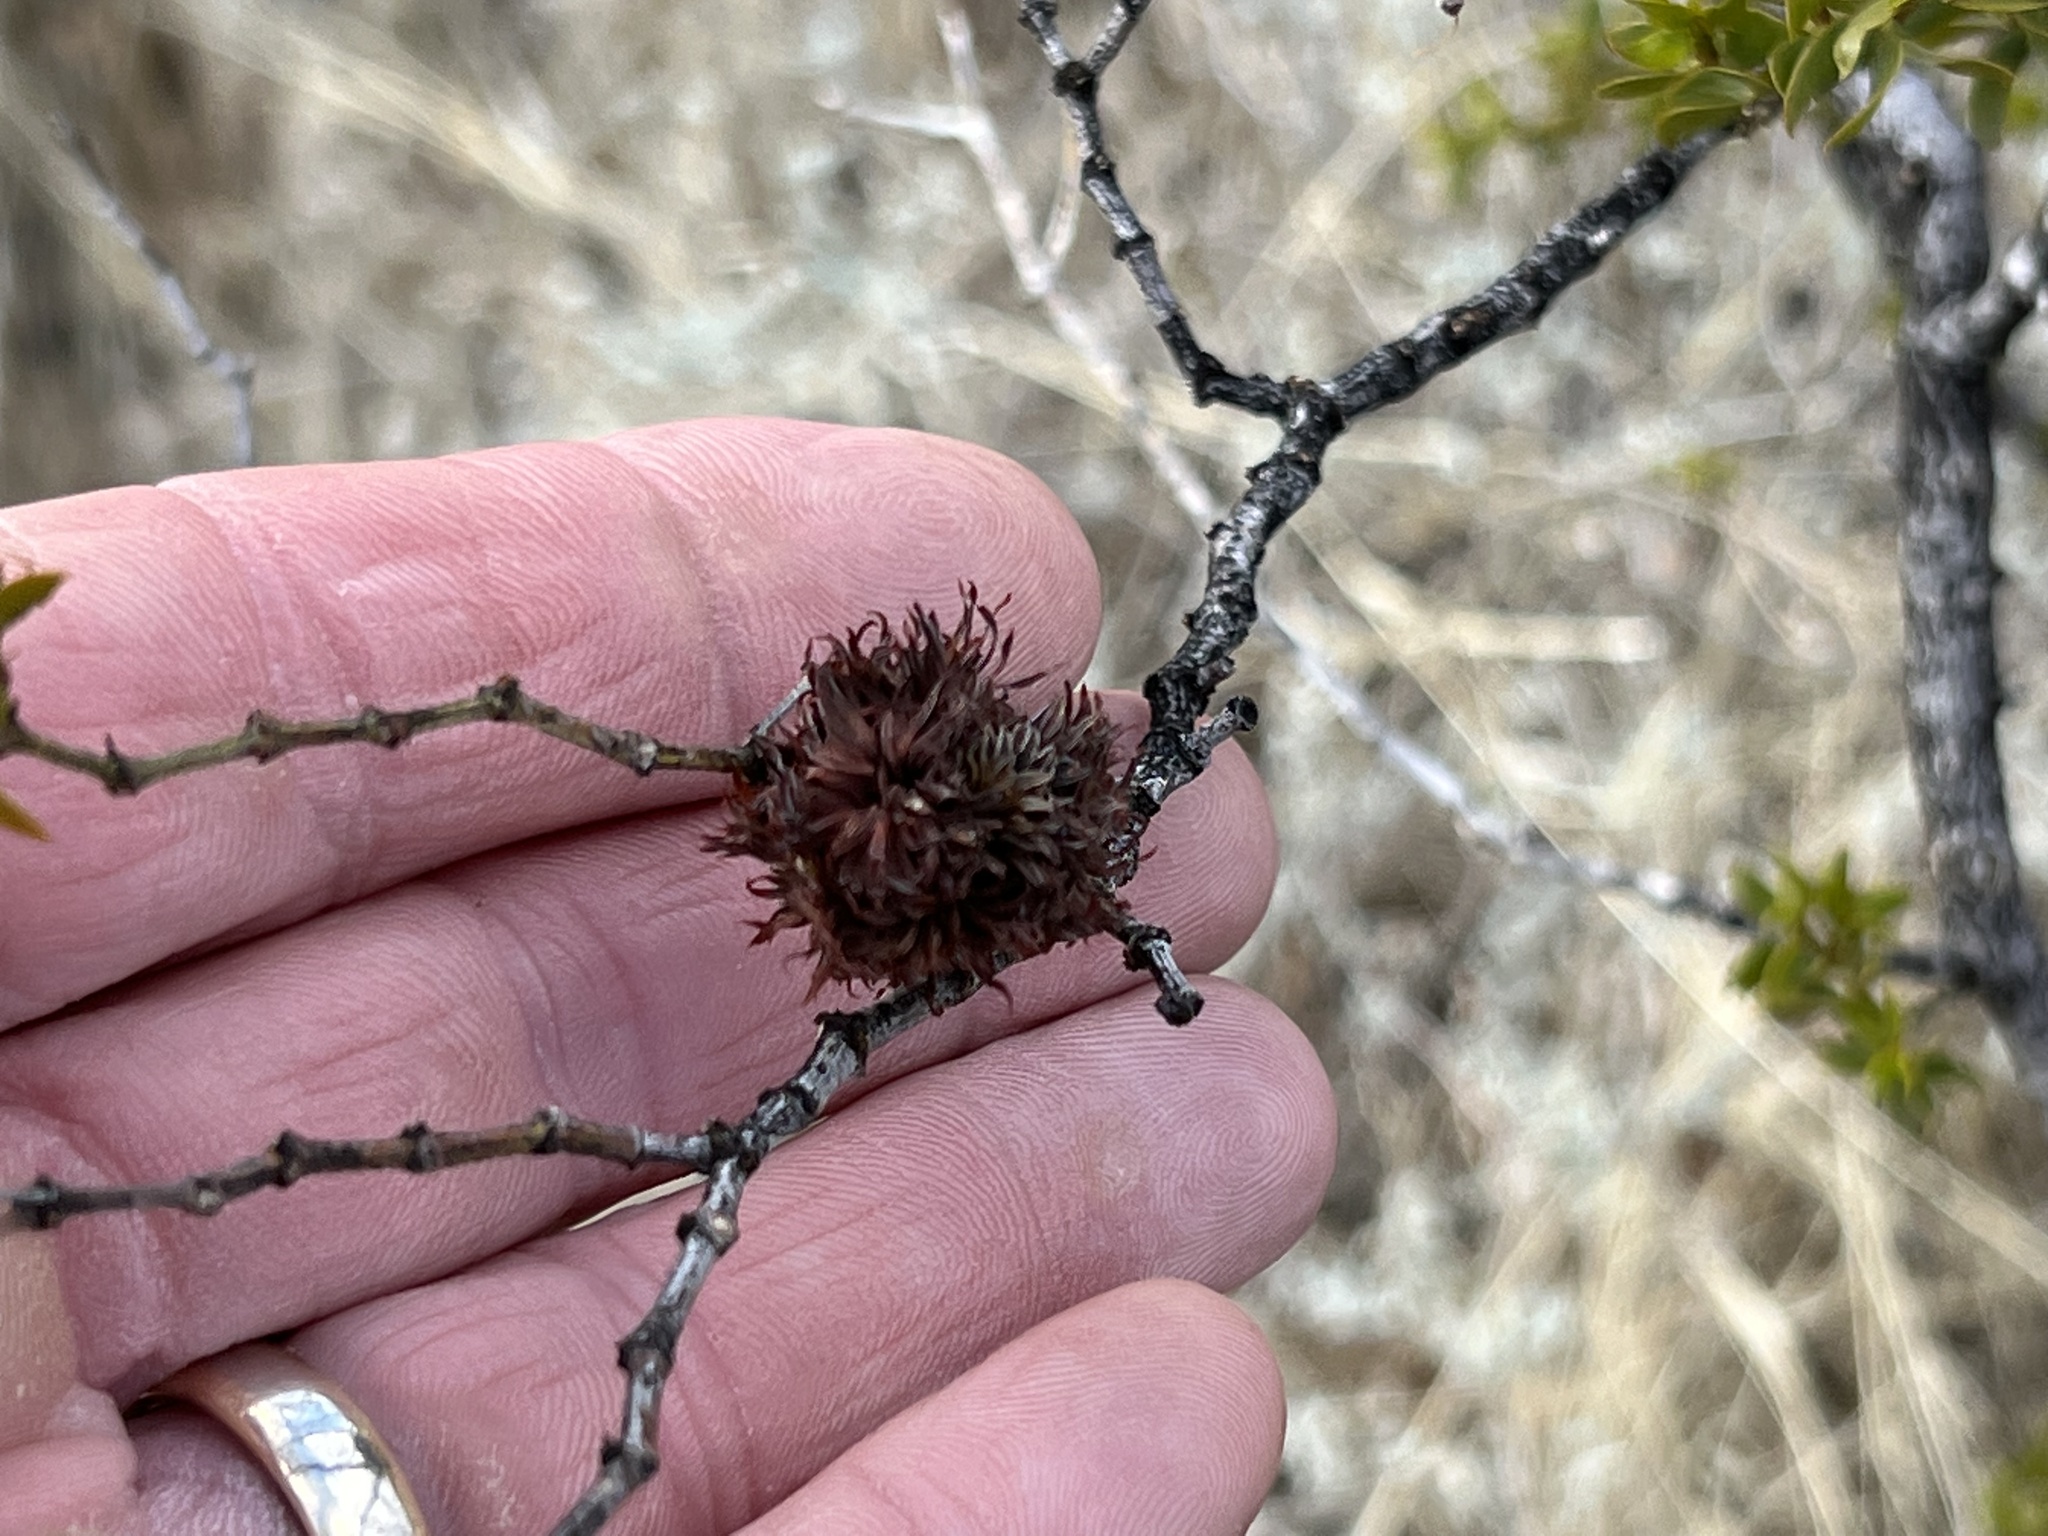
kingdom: Animalia
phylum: Arthropoda
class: Insecta
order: Diptera
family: Cecidomyiidae
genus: Asphondylia
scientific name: Asphondylia auripila
